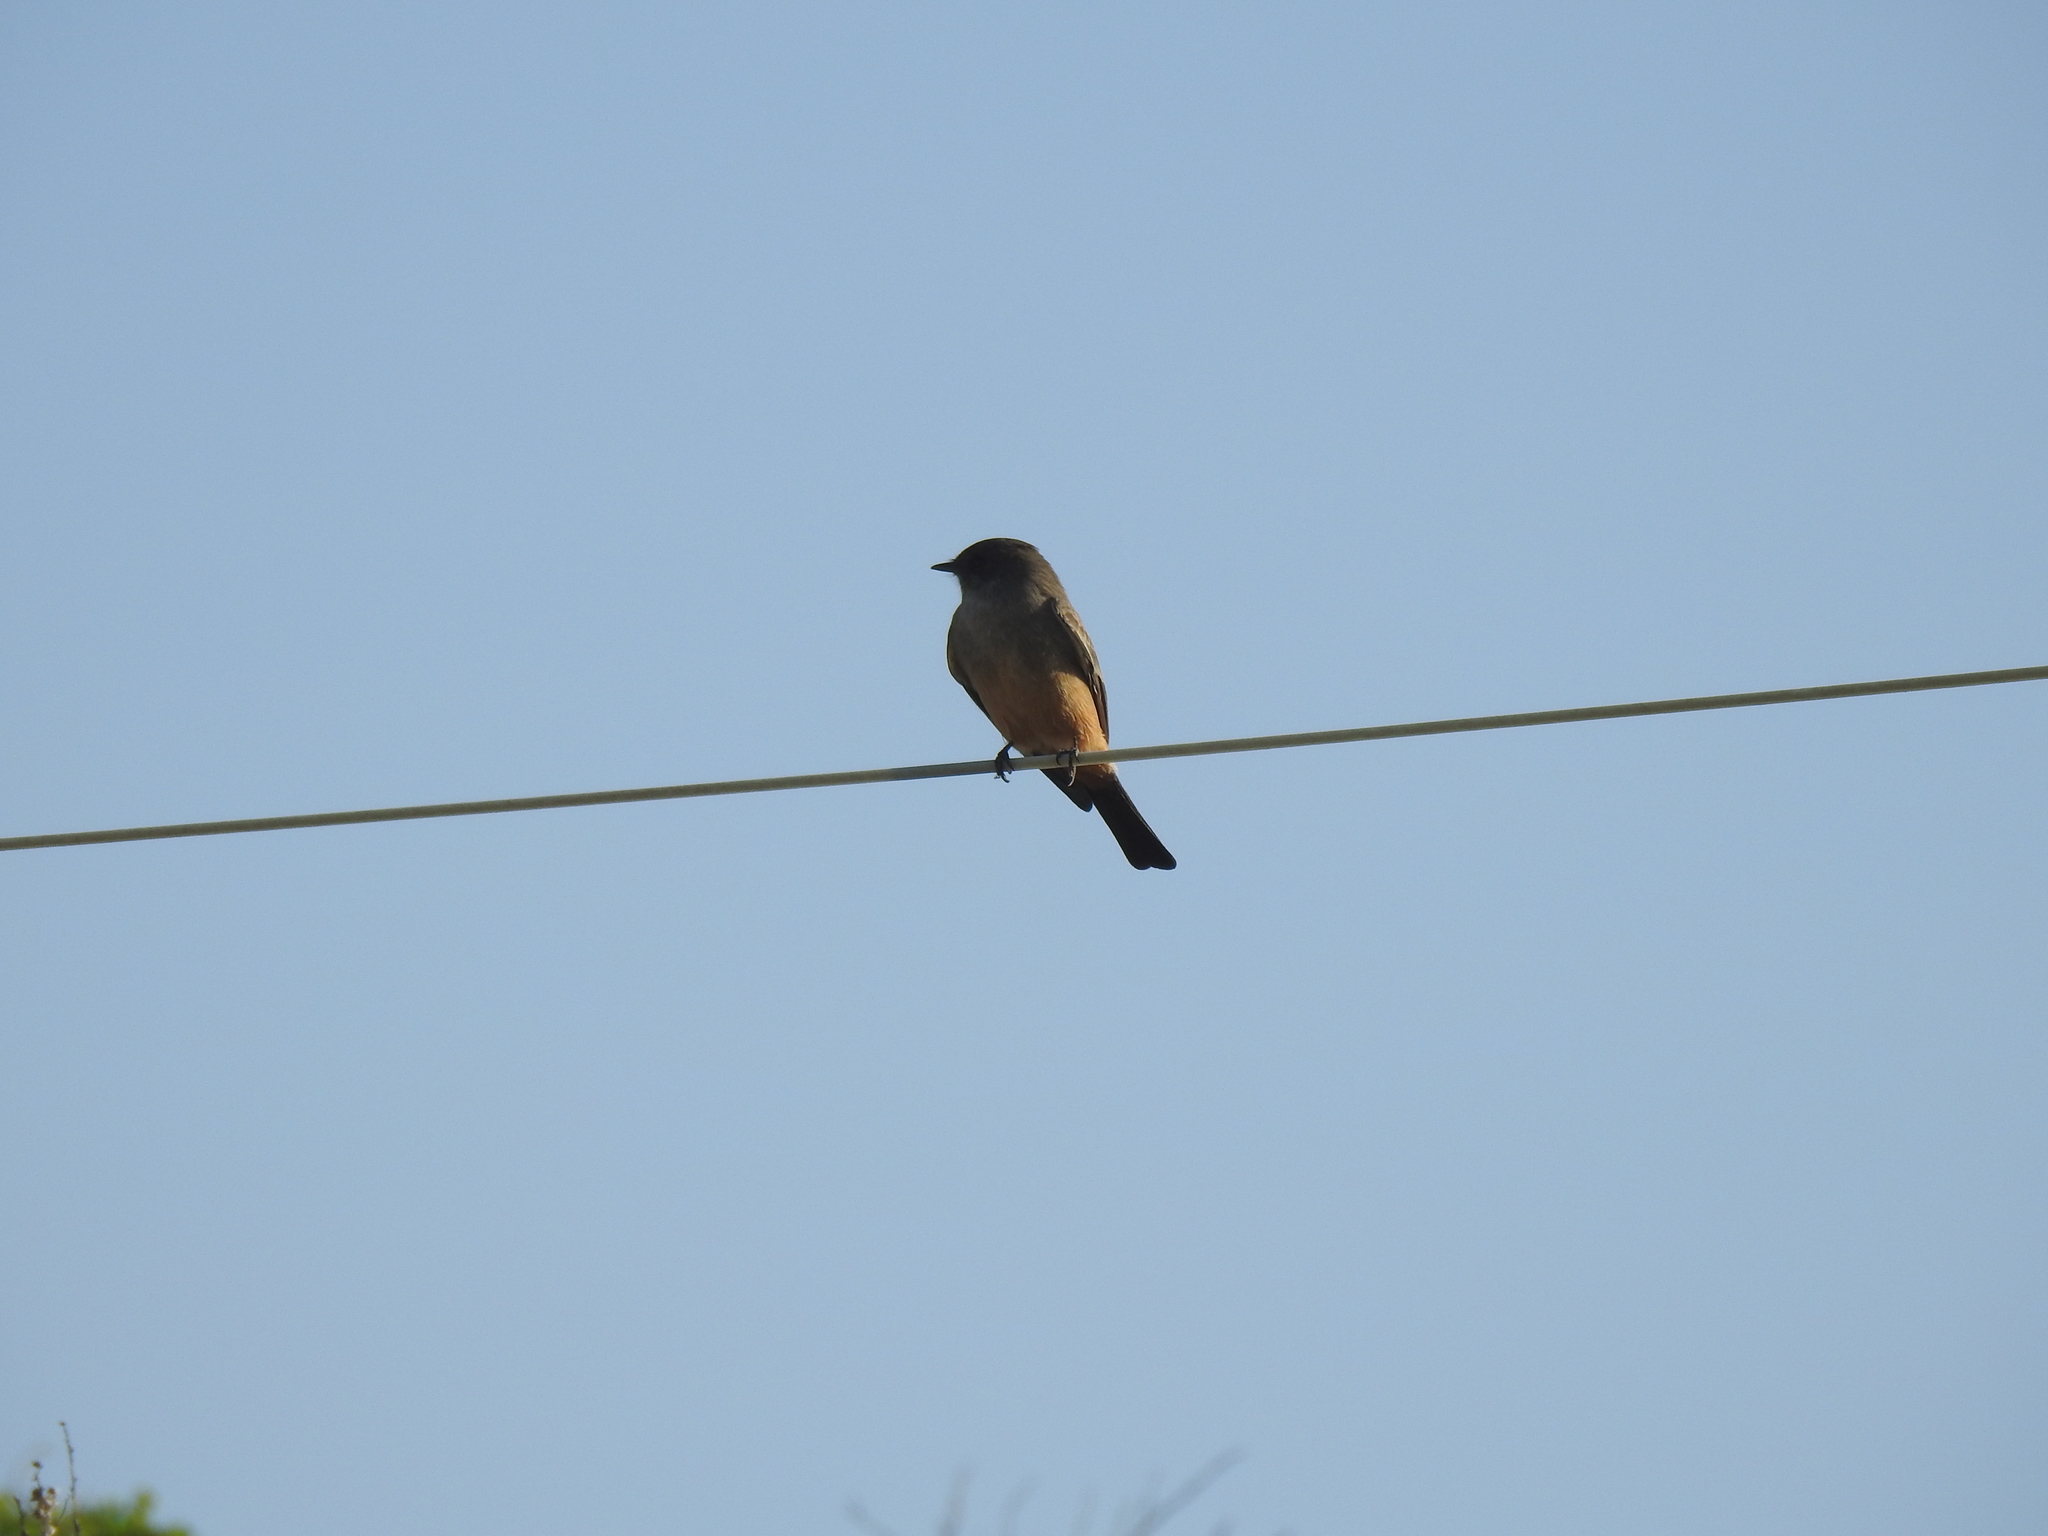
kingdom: Animalia
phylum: Chordata
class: Aves
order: Passeriformes
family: Tyrannidae
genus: Sayornis
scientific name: Sayornis saya
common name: Say's phoebe
